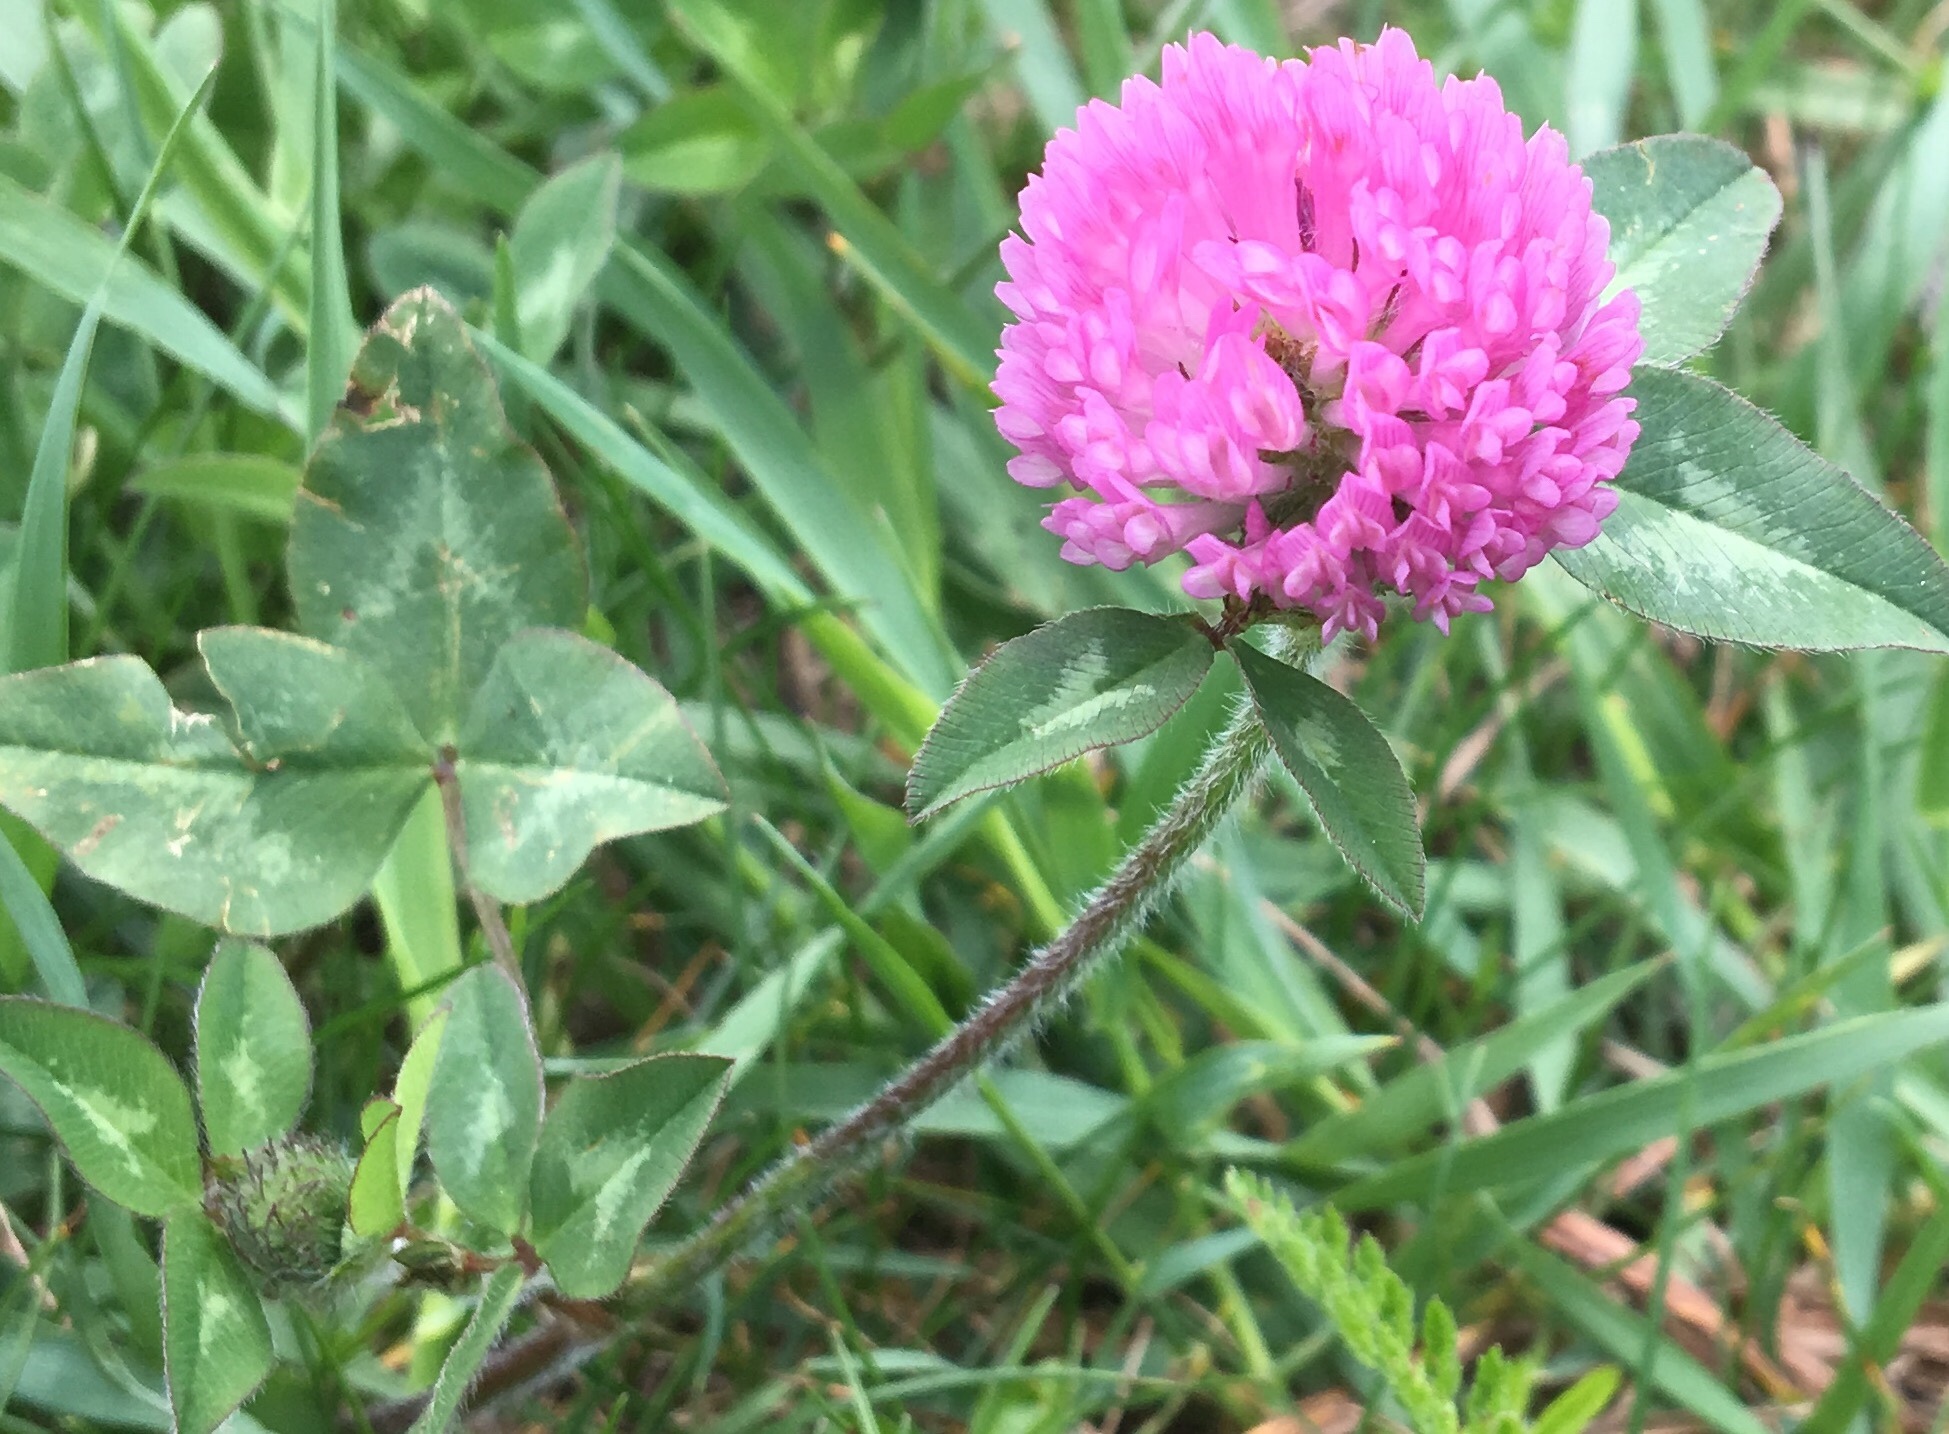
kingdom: Plantae
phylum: Tracheophyta
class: Magnoliopsida
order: Fabales
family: Fabaceae
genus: Trifolium
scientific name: Trifolium pratense
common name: Red clover
